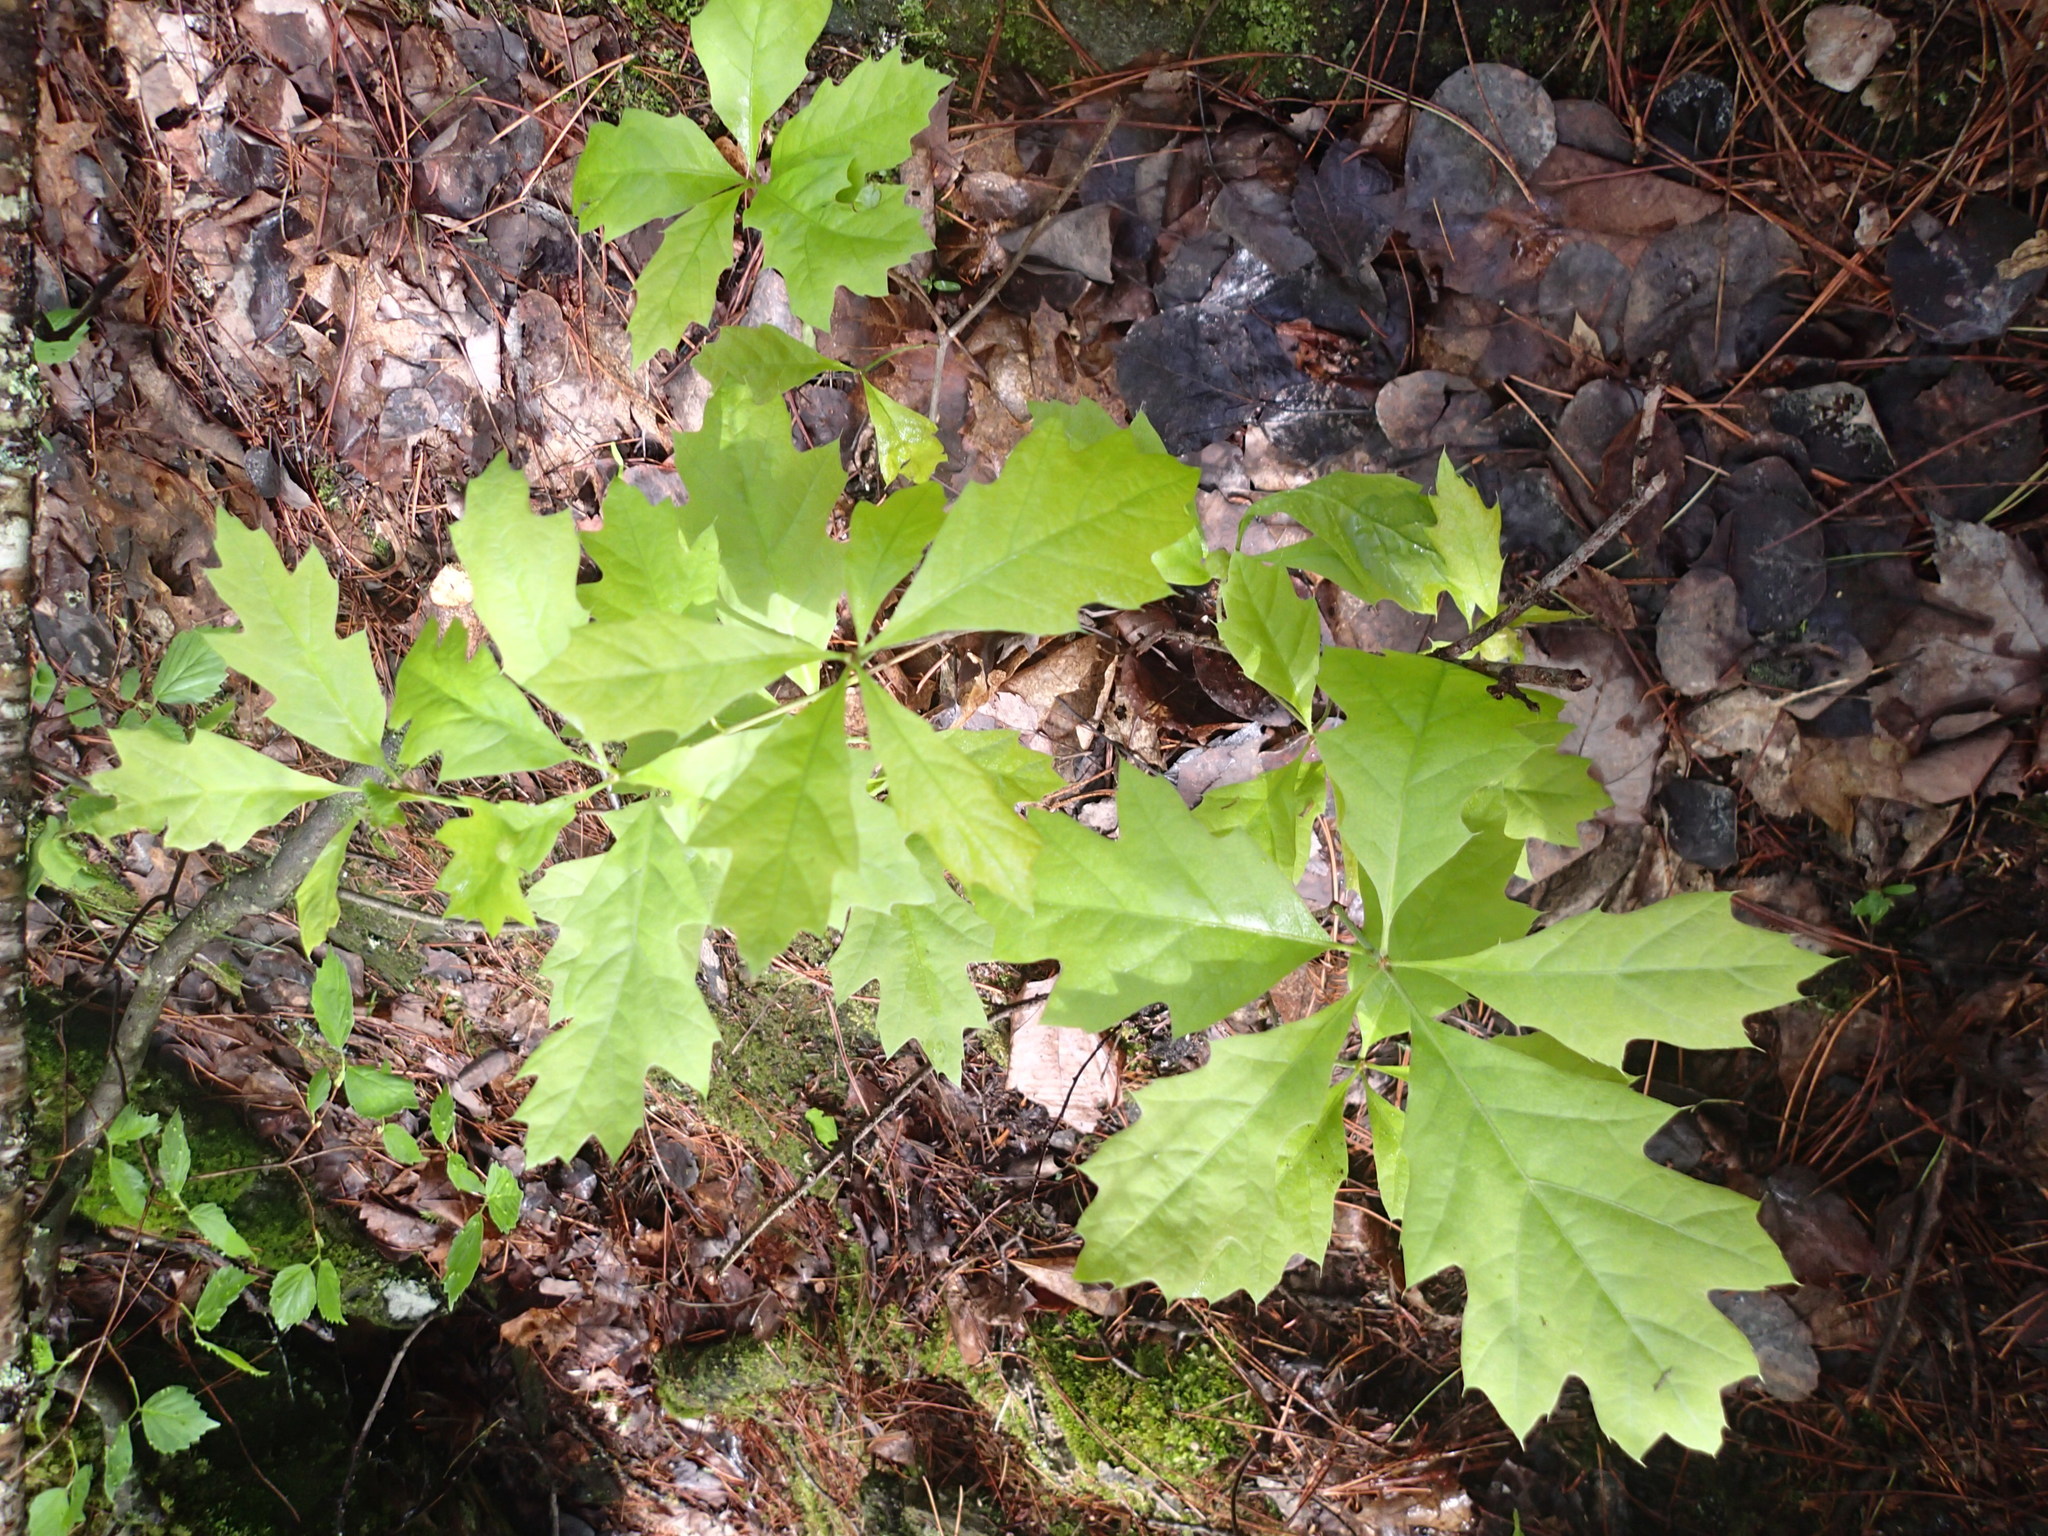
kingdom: Plantae
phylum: Tracheophyta
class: Magnoliopsida
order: Fagales
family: Fagaceae
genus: Quercus
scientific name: Quercus ellipsoidalis
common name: Hill's oak
